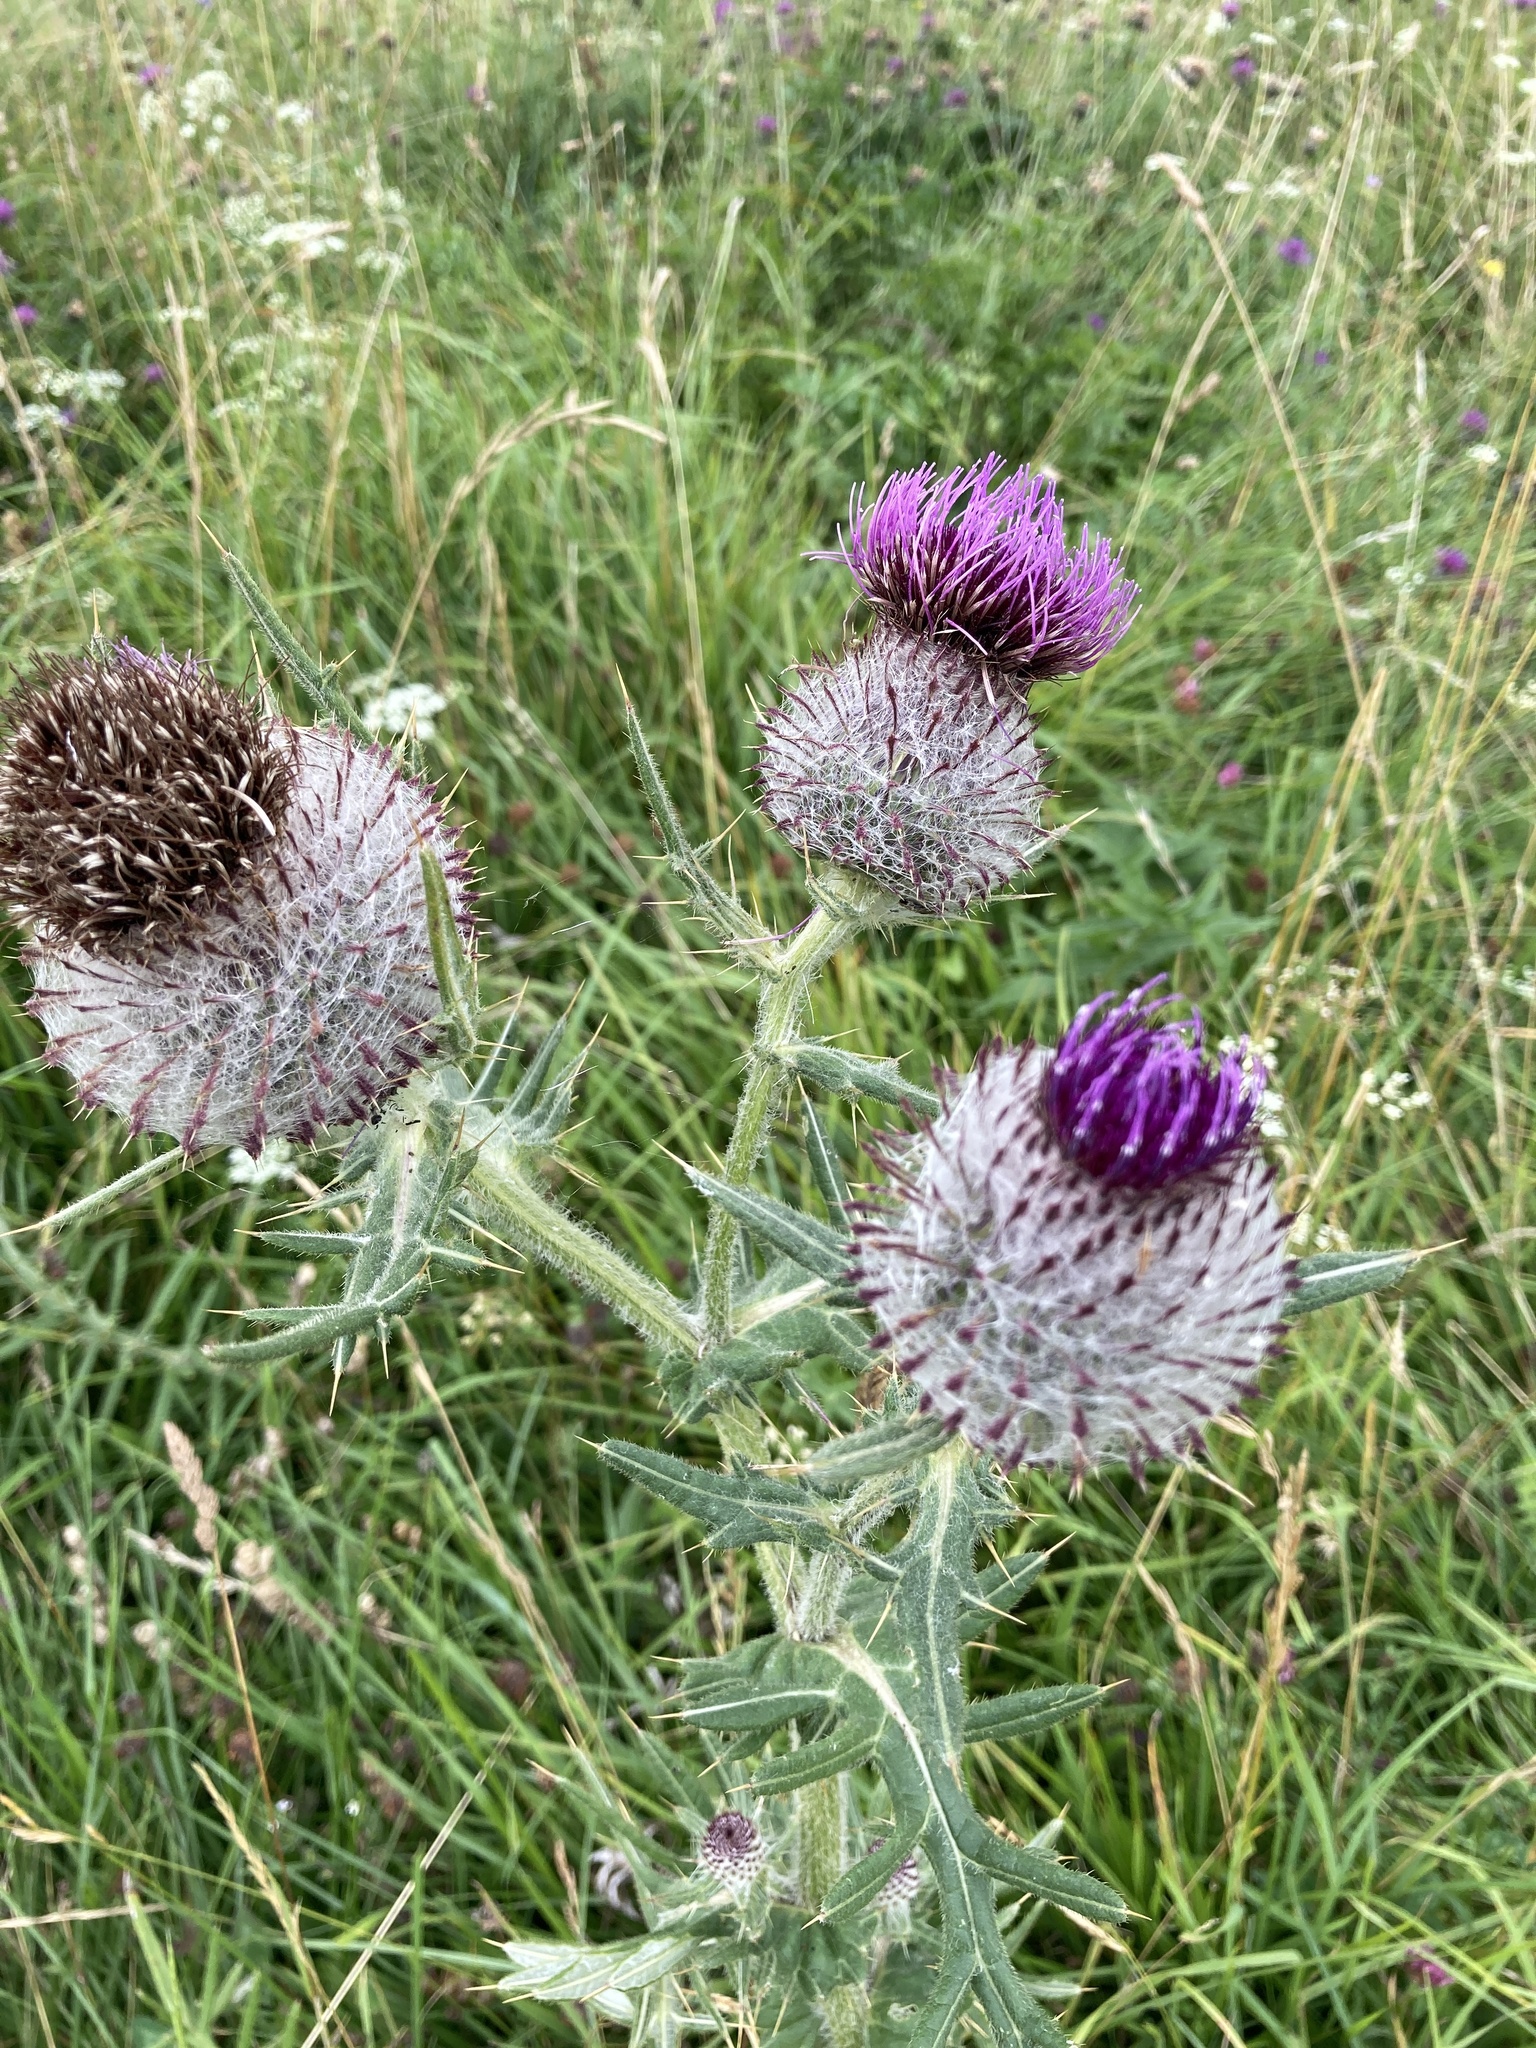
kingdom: Plantae
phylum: Tracheophyta
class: Magnoliopsida
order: Asterales
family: Asteraceae
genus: Lophiolepis
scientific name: Lophiolepis eriophora
